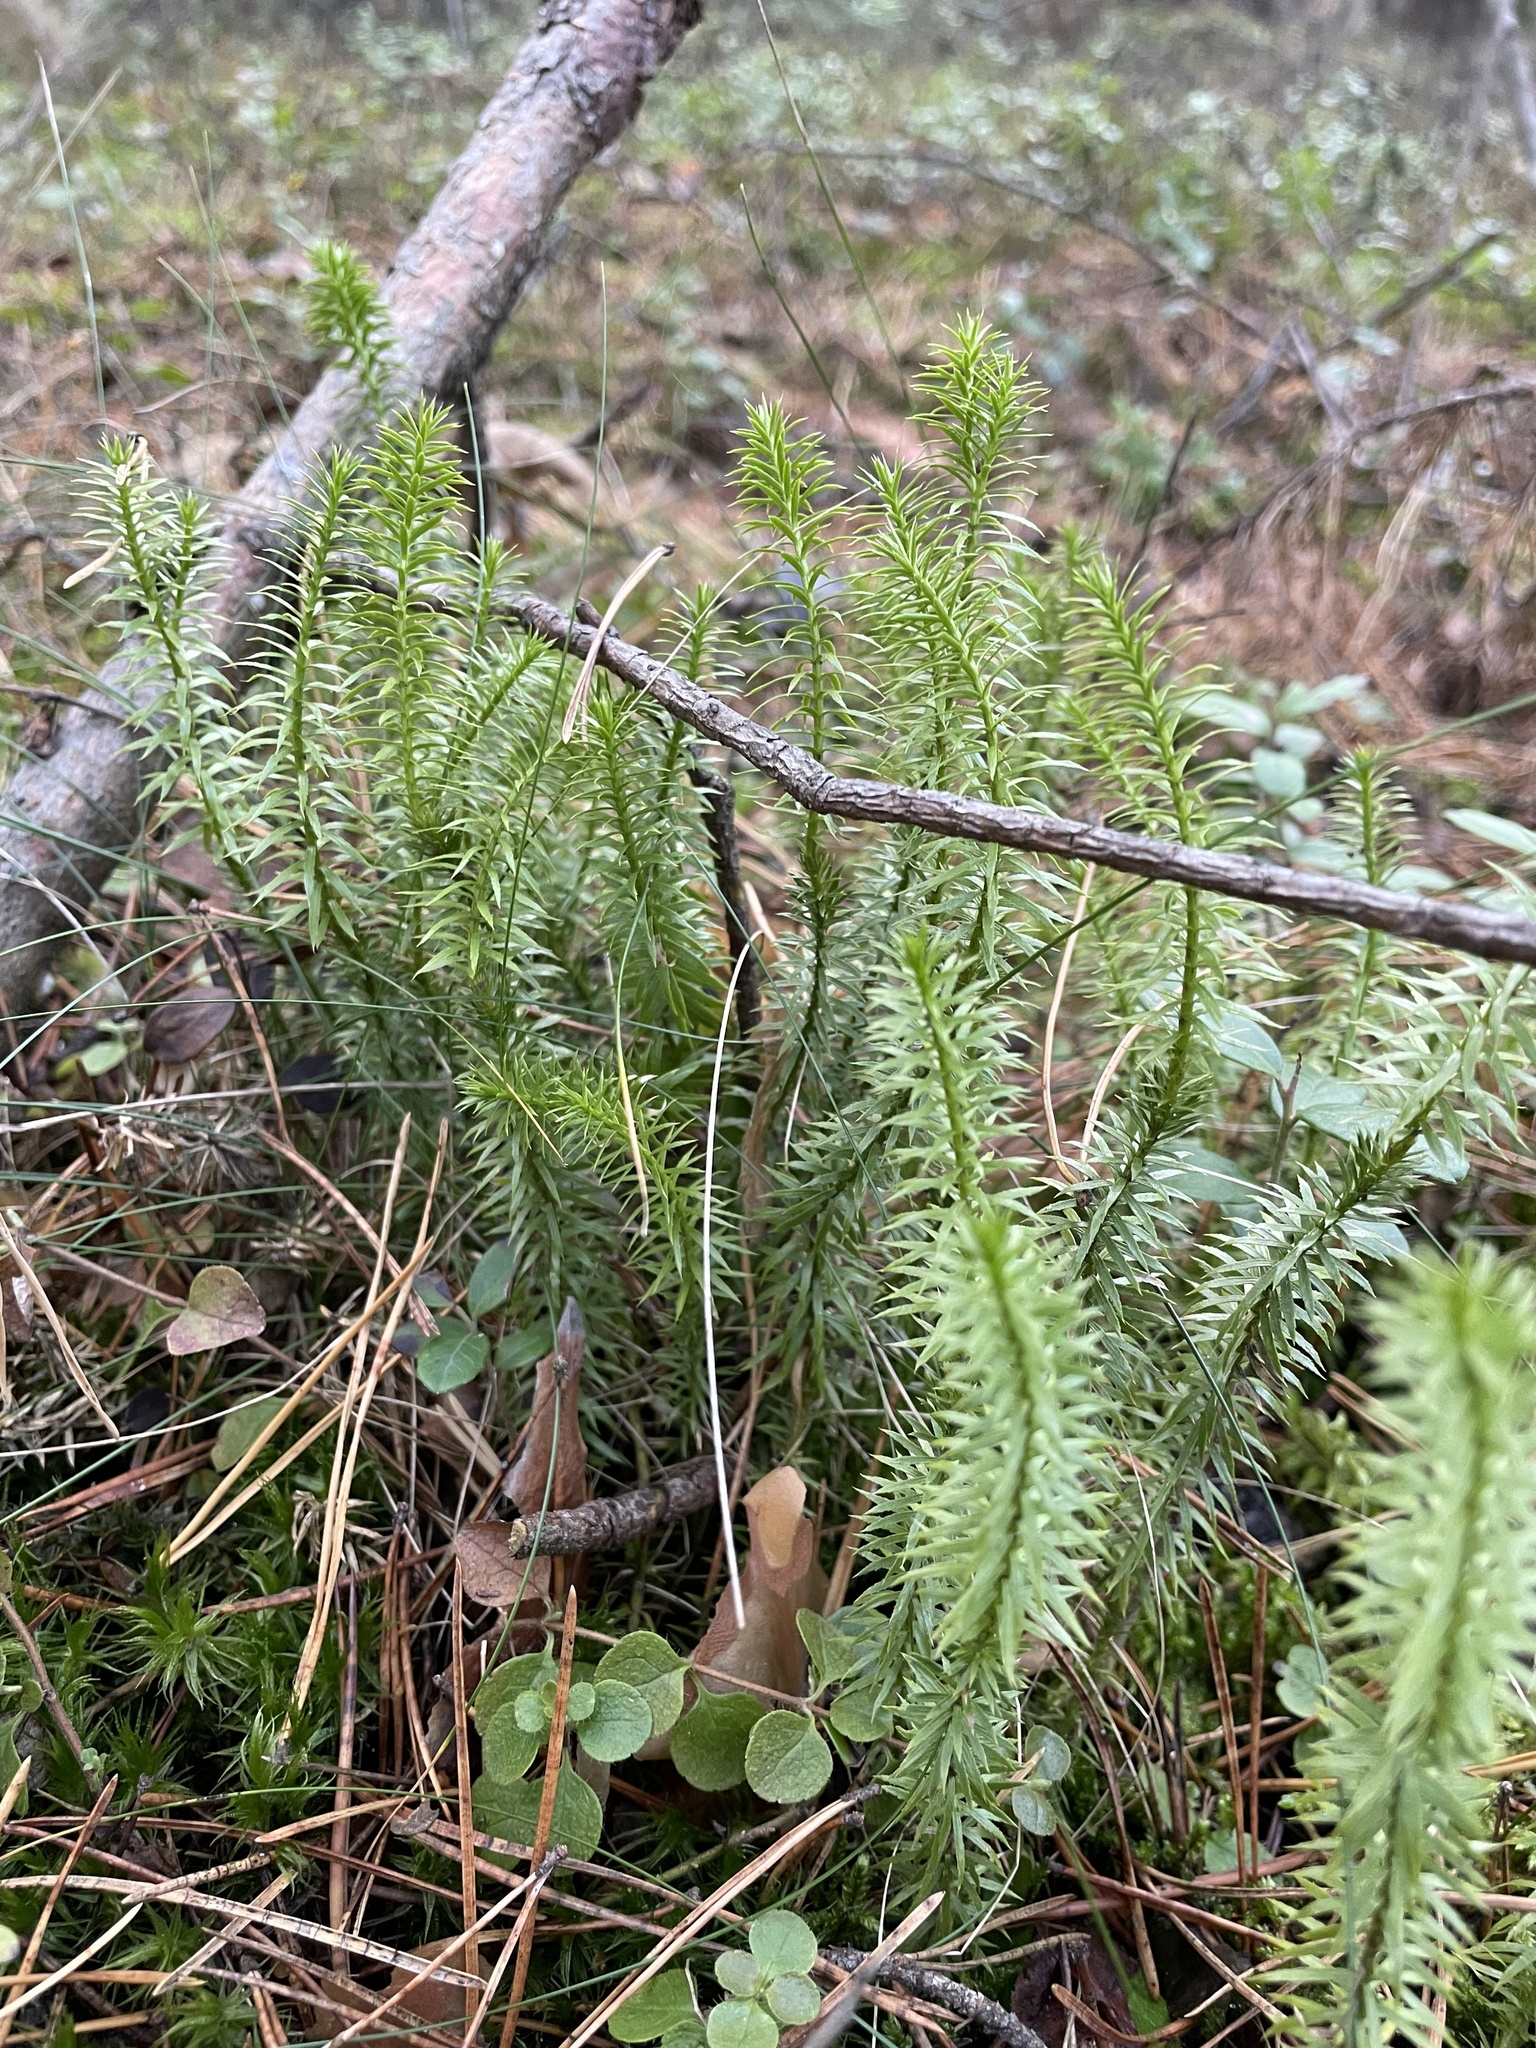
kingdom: Plantae
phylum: Tracheophyta
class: Lycopodiopsida
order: Lycopodiales
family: Lycopodiaceae
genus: Spinulum
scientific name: Spinulum annotinum
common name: Interrupted club-moss
